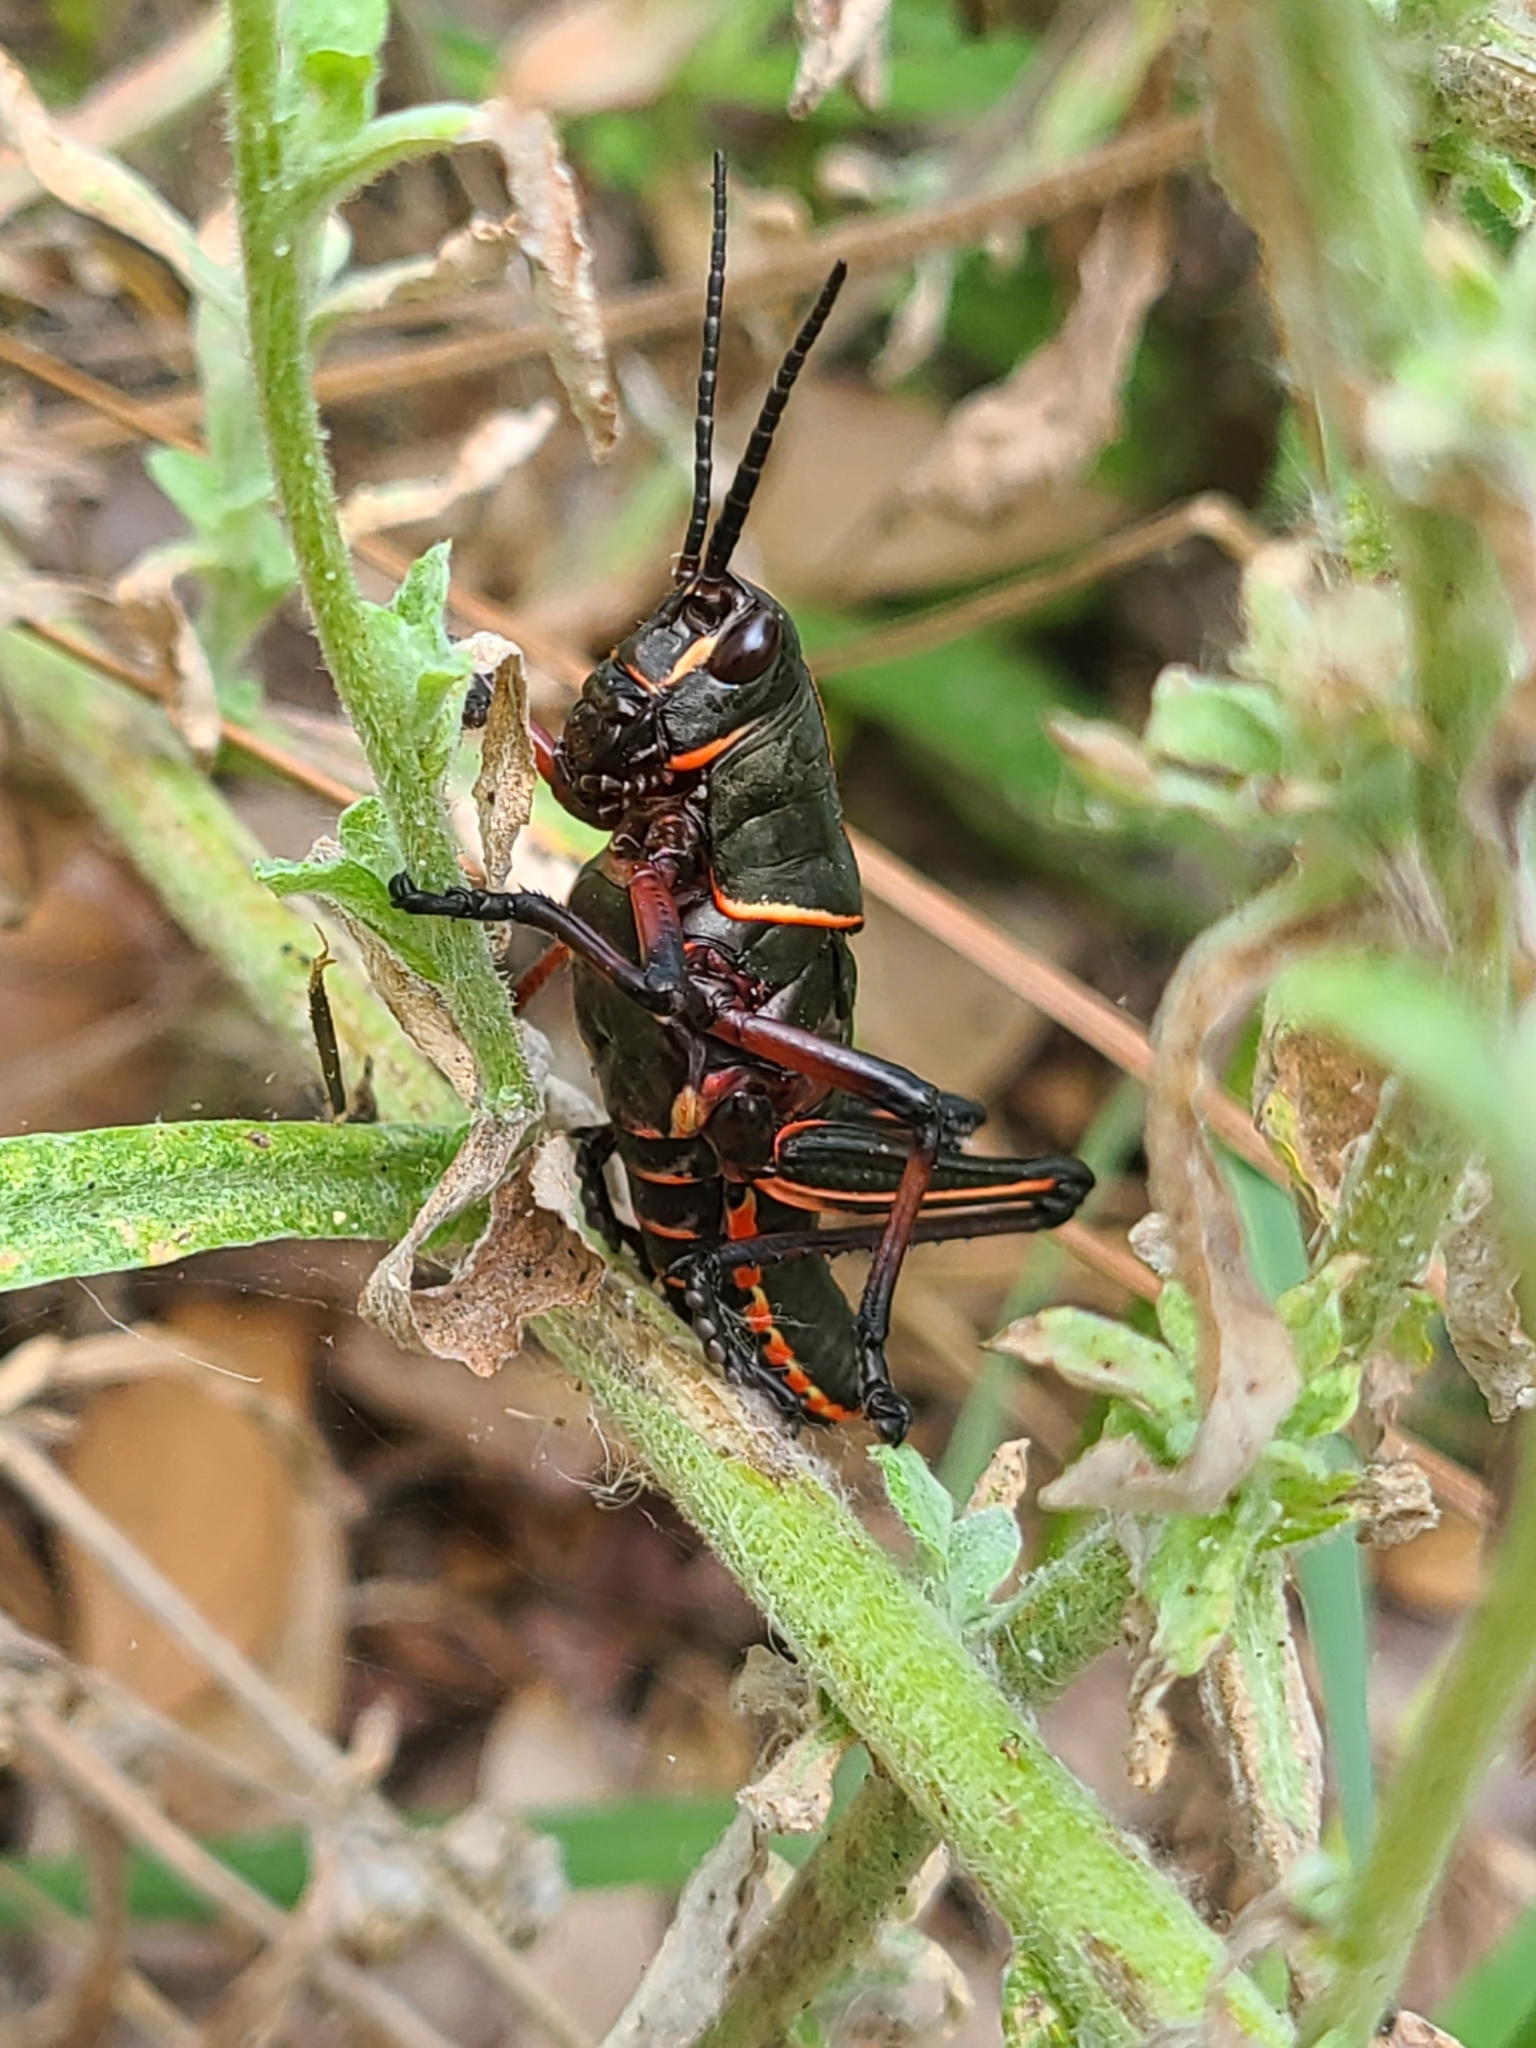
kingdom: Animalia
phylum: Arthropoda
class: Insecta
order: Orthoptera
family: Romaleidae
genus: Romalea
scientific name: Romalea microptera
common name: Eastern lubber grasshopper
